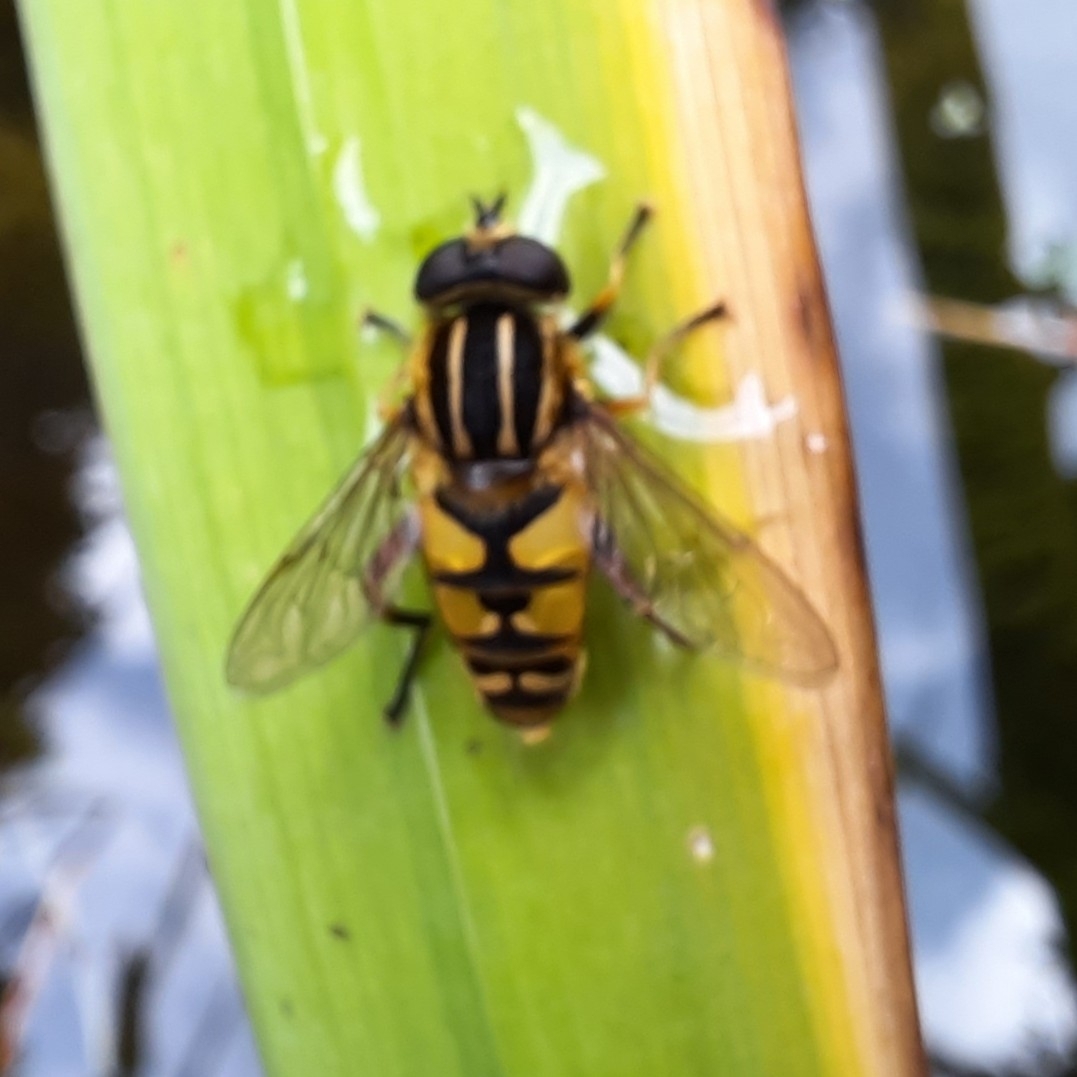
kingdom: Animalia
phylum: Arthropoda
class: Insecta
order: Diptera
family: Syrphidae
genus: Helophilus
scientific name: Helophilus pendulus
